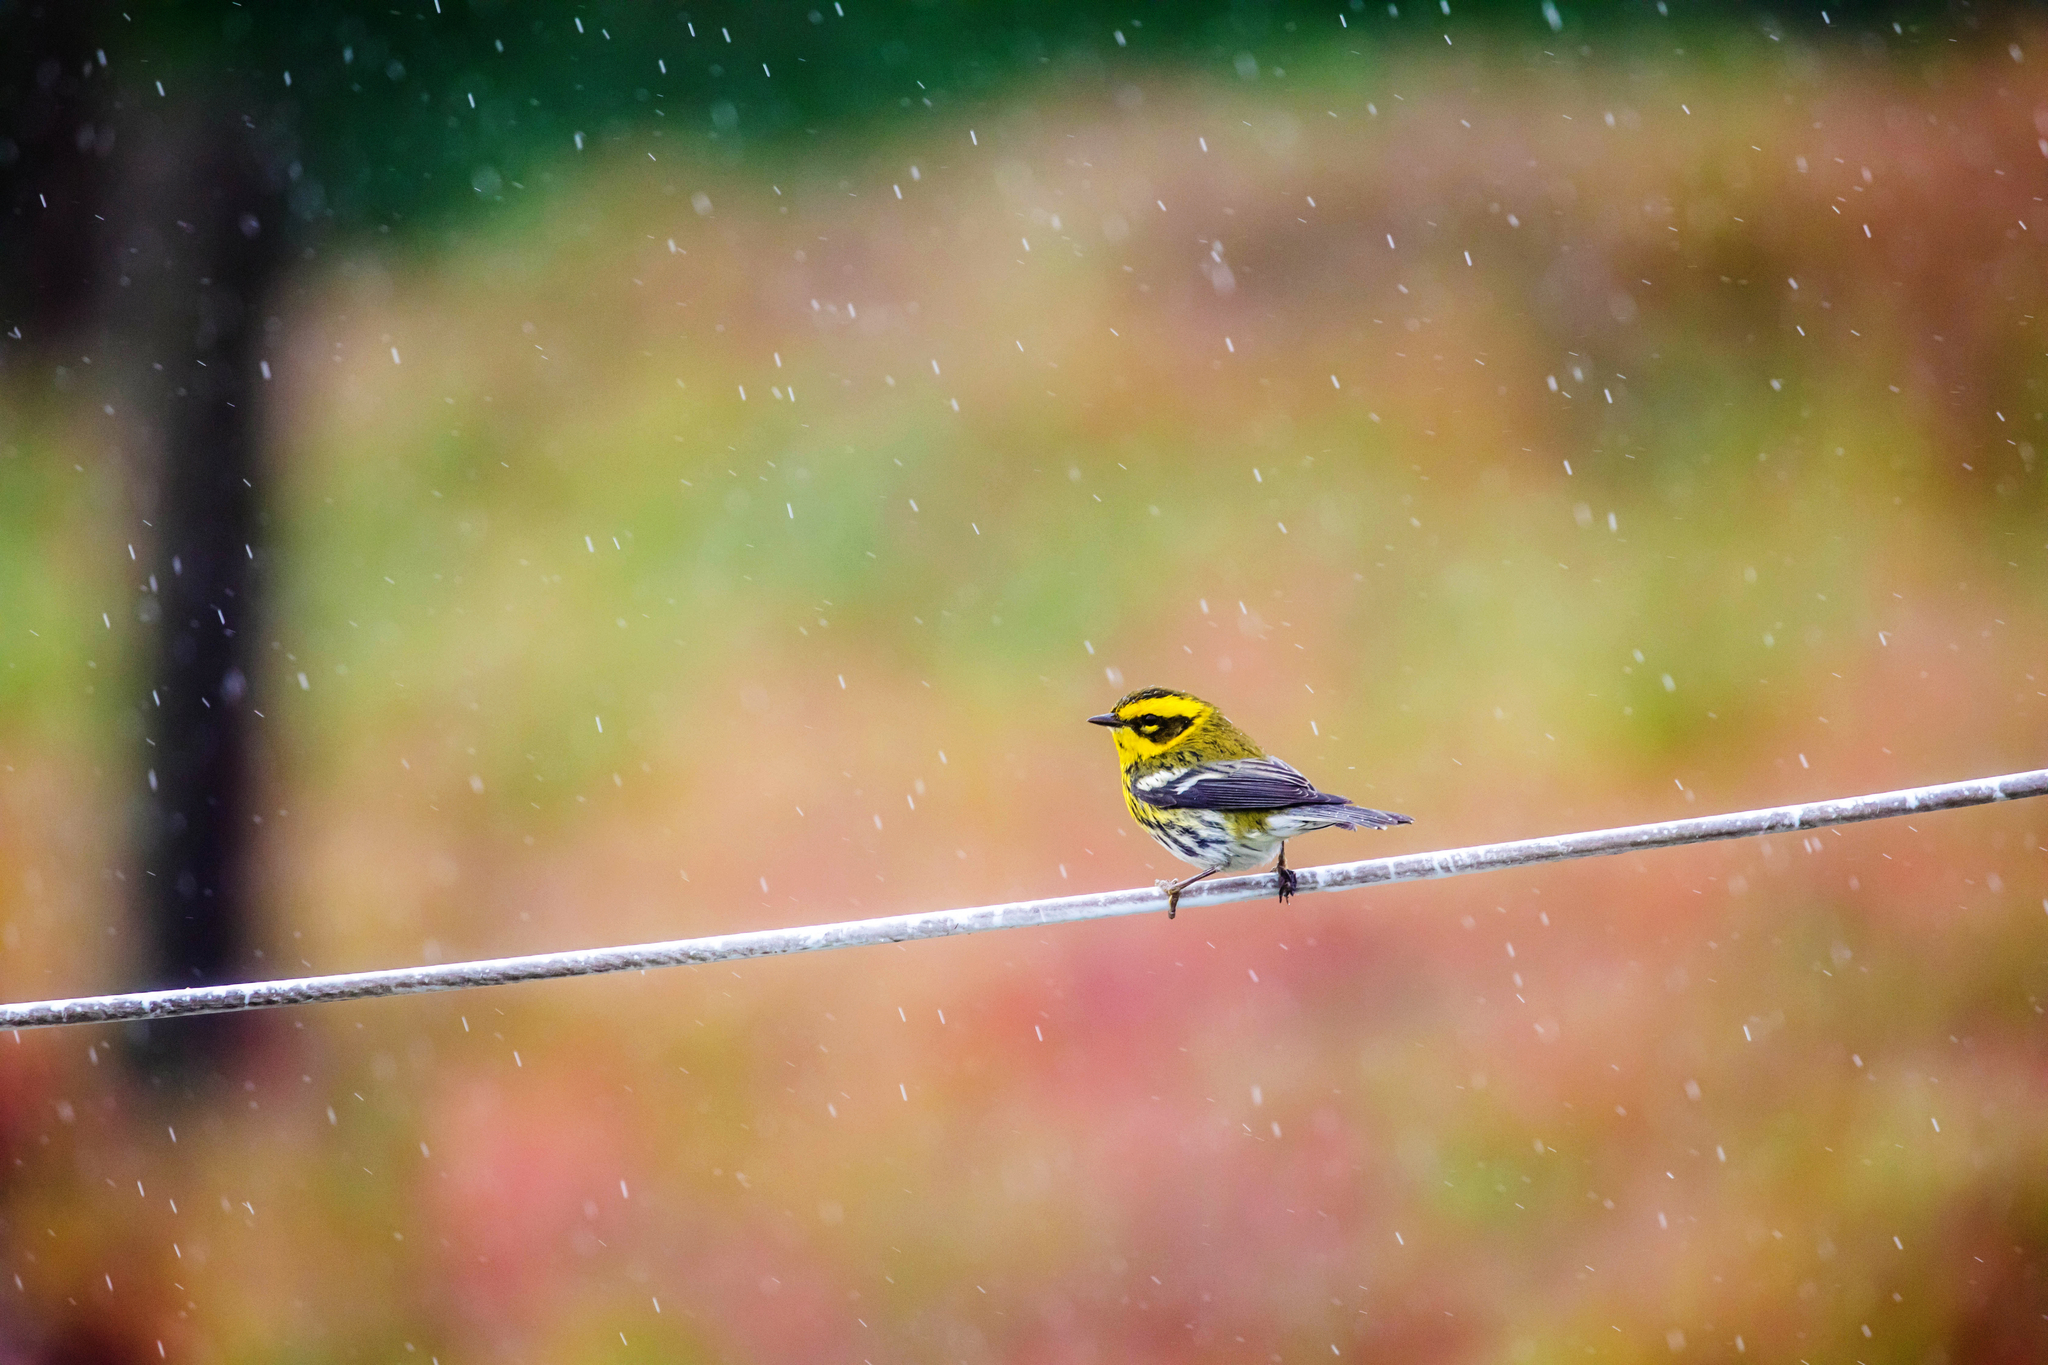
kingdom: Animalia
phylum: Chordata
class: Aves
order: Passeriformes
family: Parulidae
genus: Setophaga
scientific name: Setophaga townsendi
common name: Townsend's warbler
